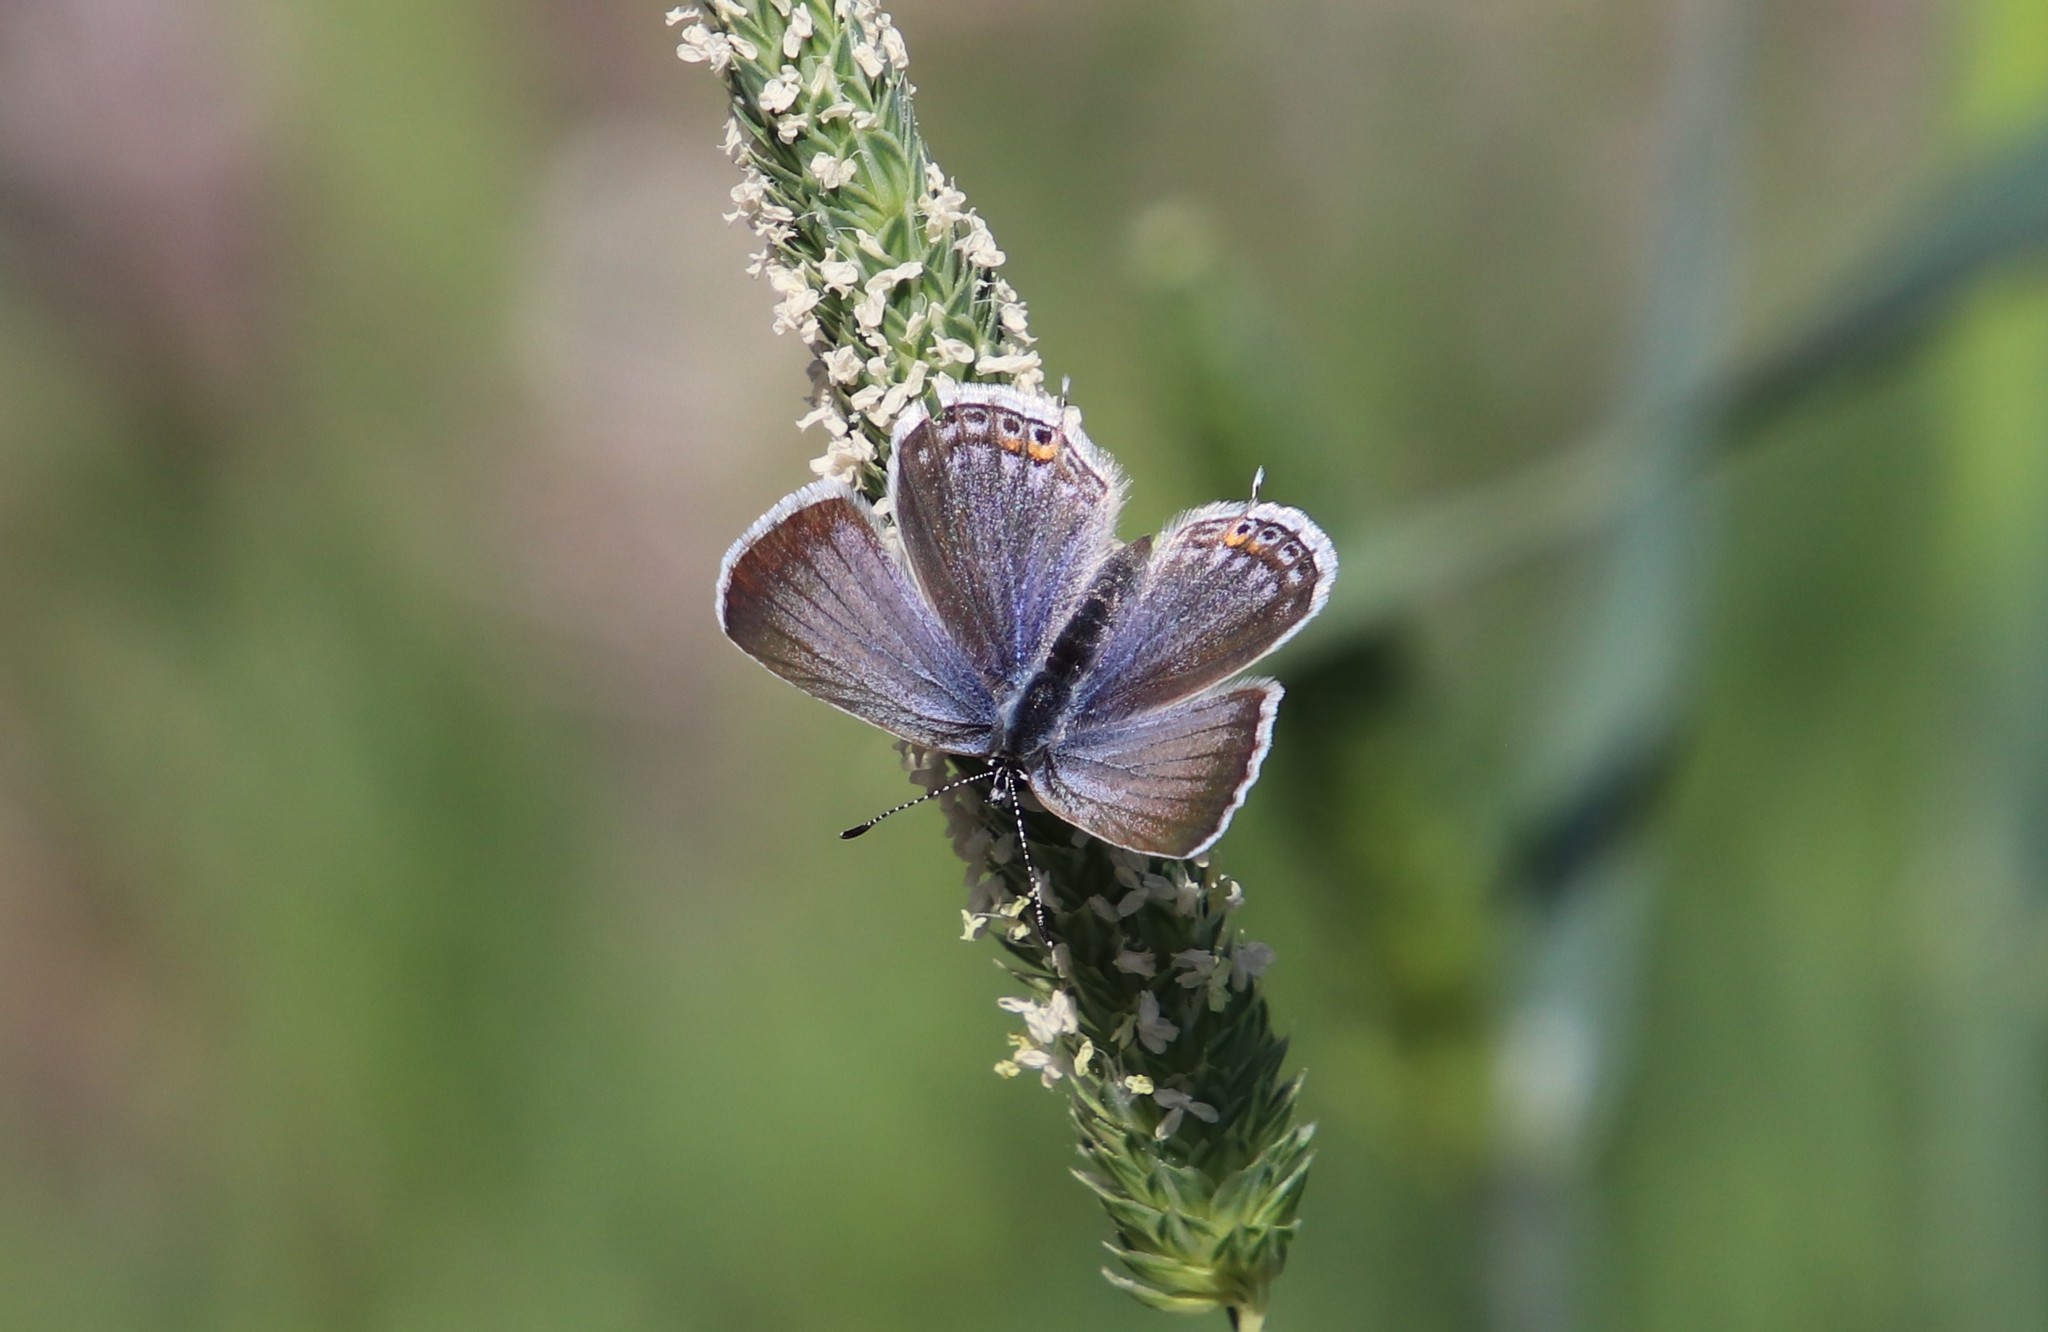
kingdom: Animalia
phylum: Arthropoda
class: Insecta
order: Lepidoptera
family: Lycaenidae
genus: Elkalyce
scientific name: Elkalyce amyntula
